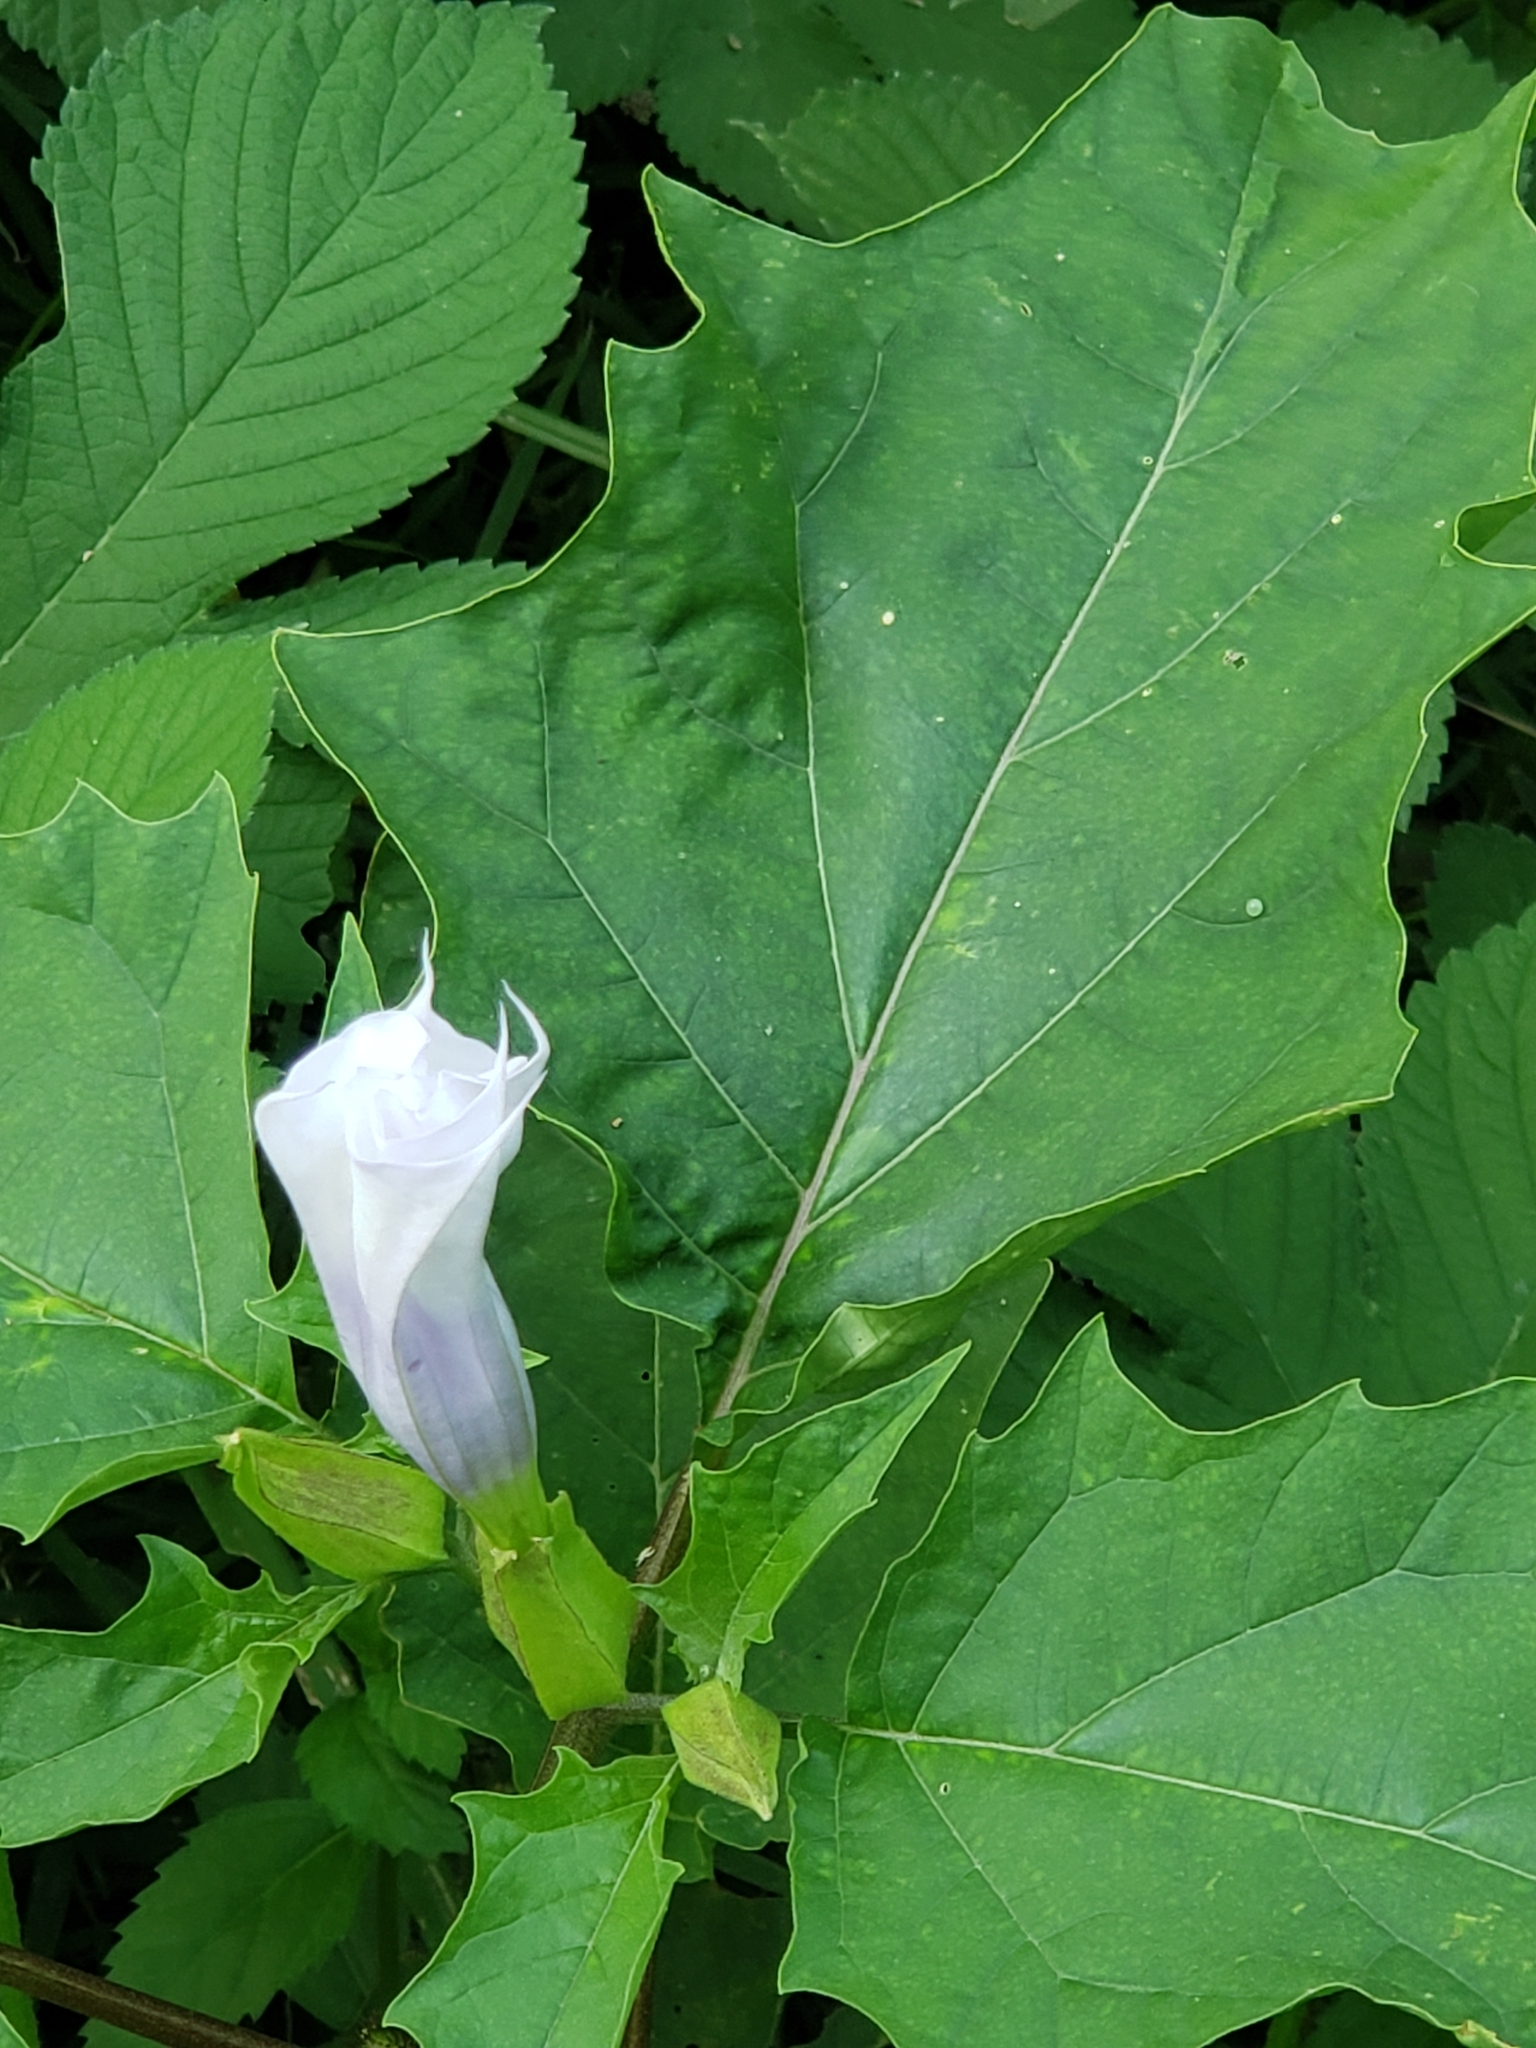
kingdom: Plantae
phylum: Tracheophyta
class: Magnoliopsida
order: Solanales
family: Solanaceae
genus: Datura
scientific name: Datura stramonium
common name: Thorn-apple
